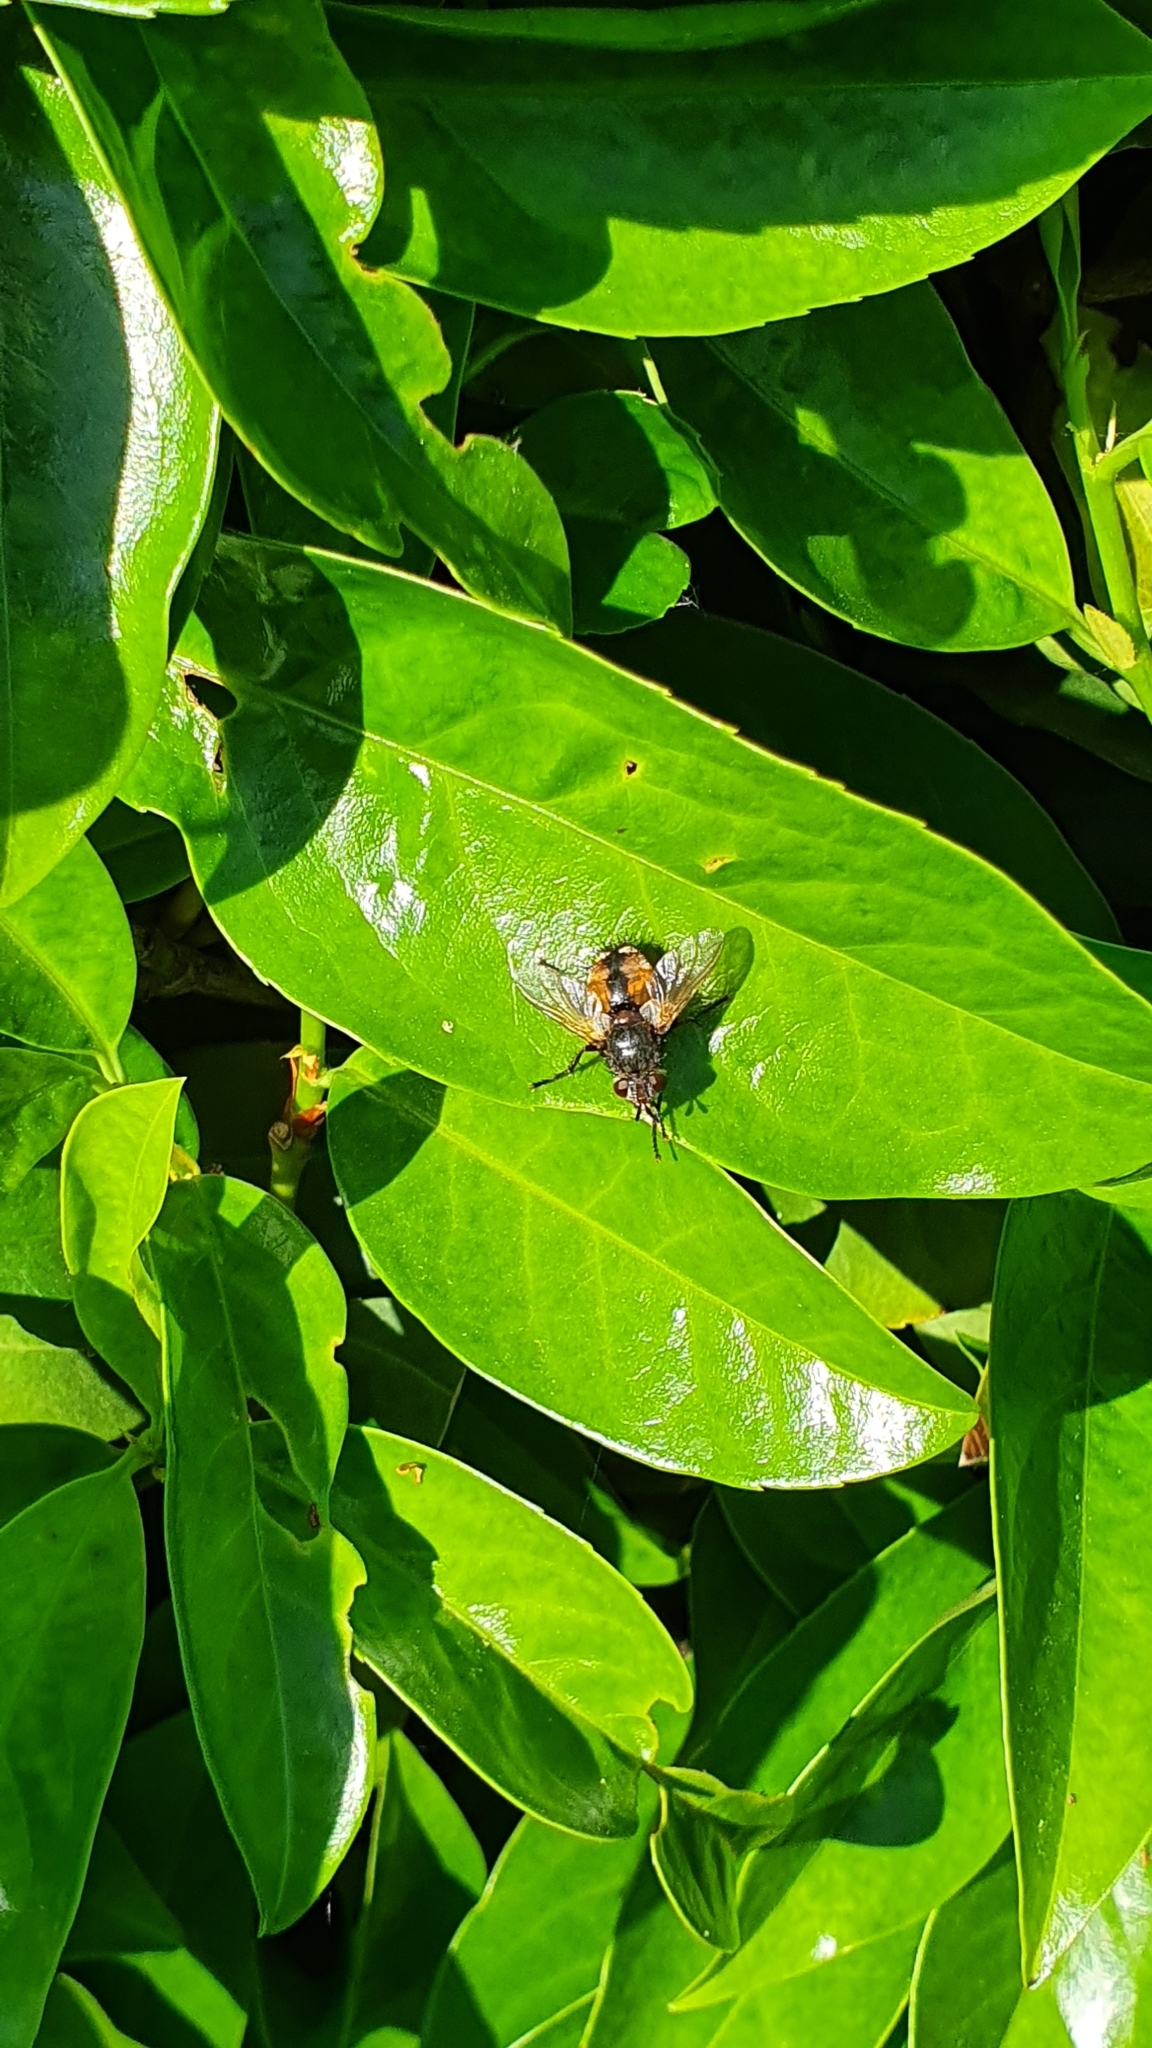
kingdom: Animalia
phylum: Arthropoda
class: Insecta
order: Diptera
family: Tachinidae
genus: Tachina
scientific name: Tachina fera
